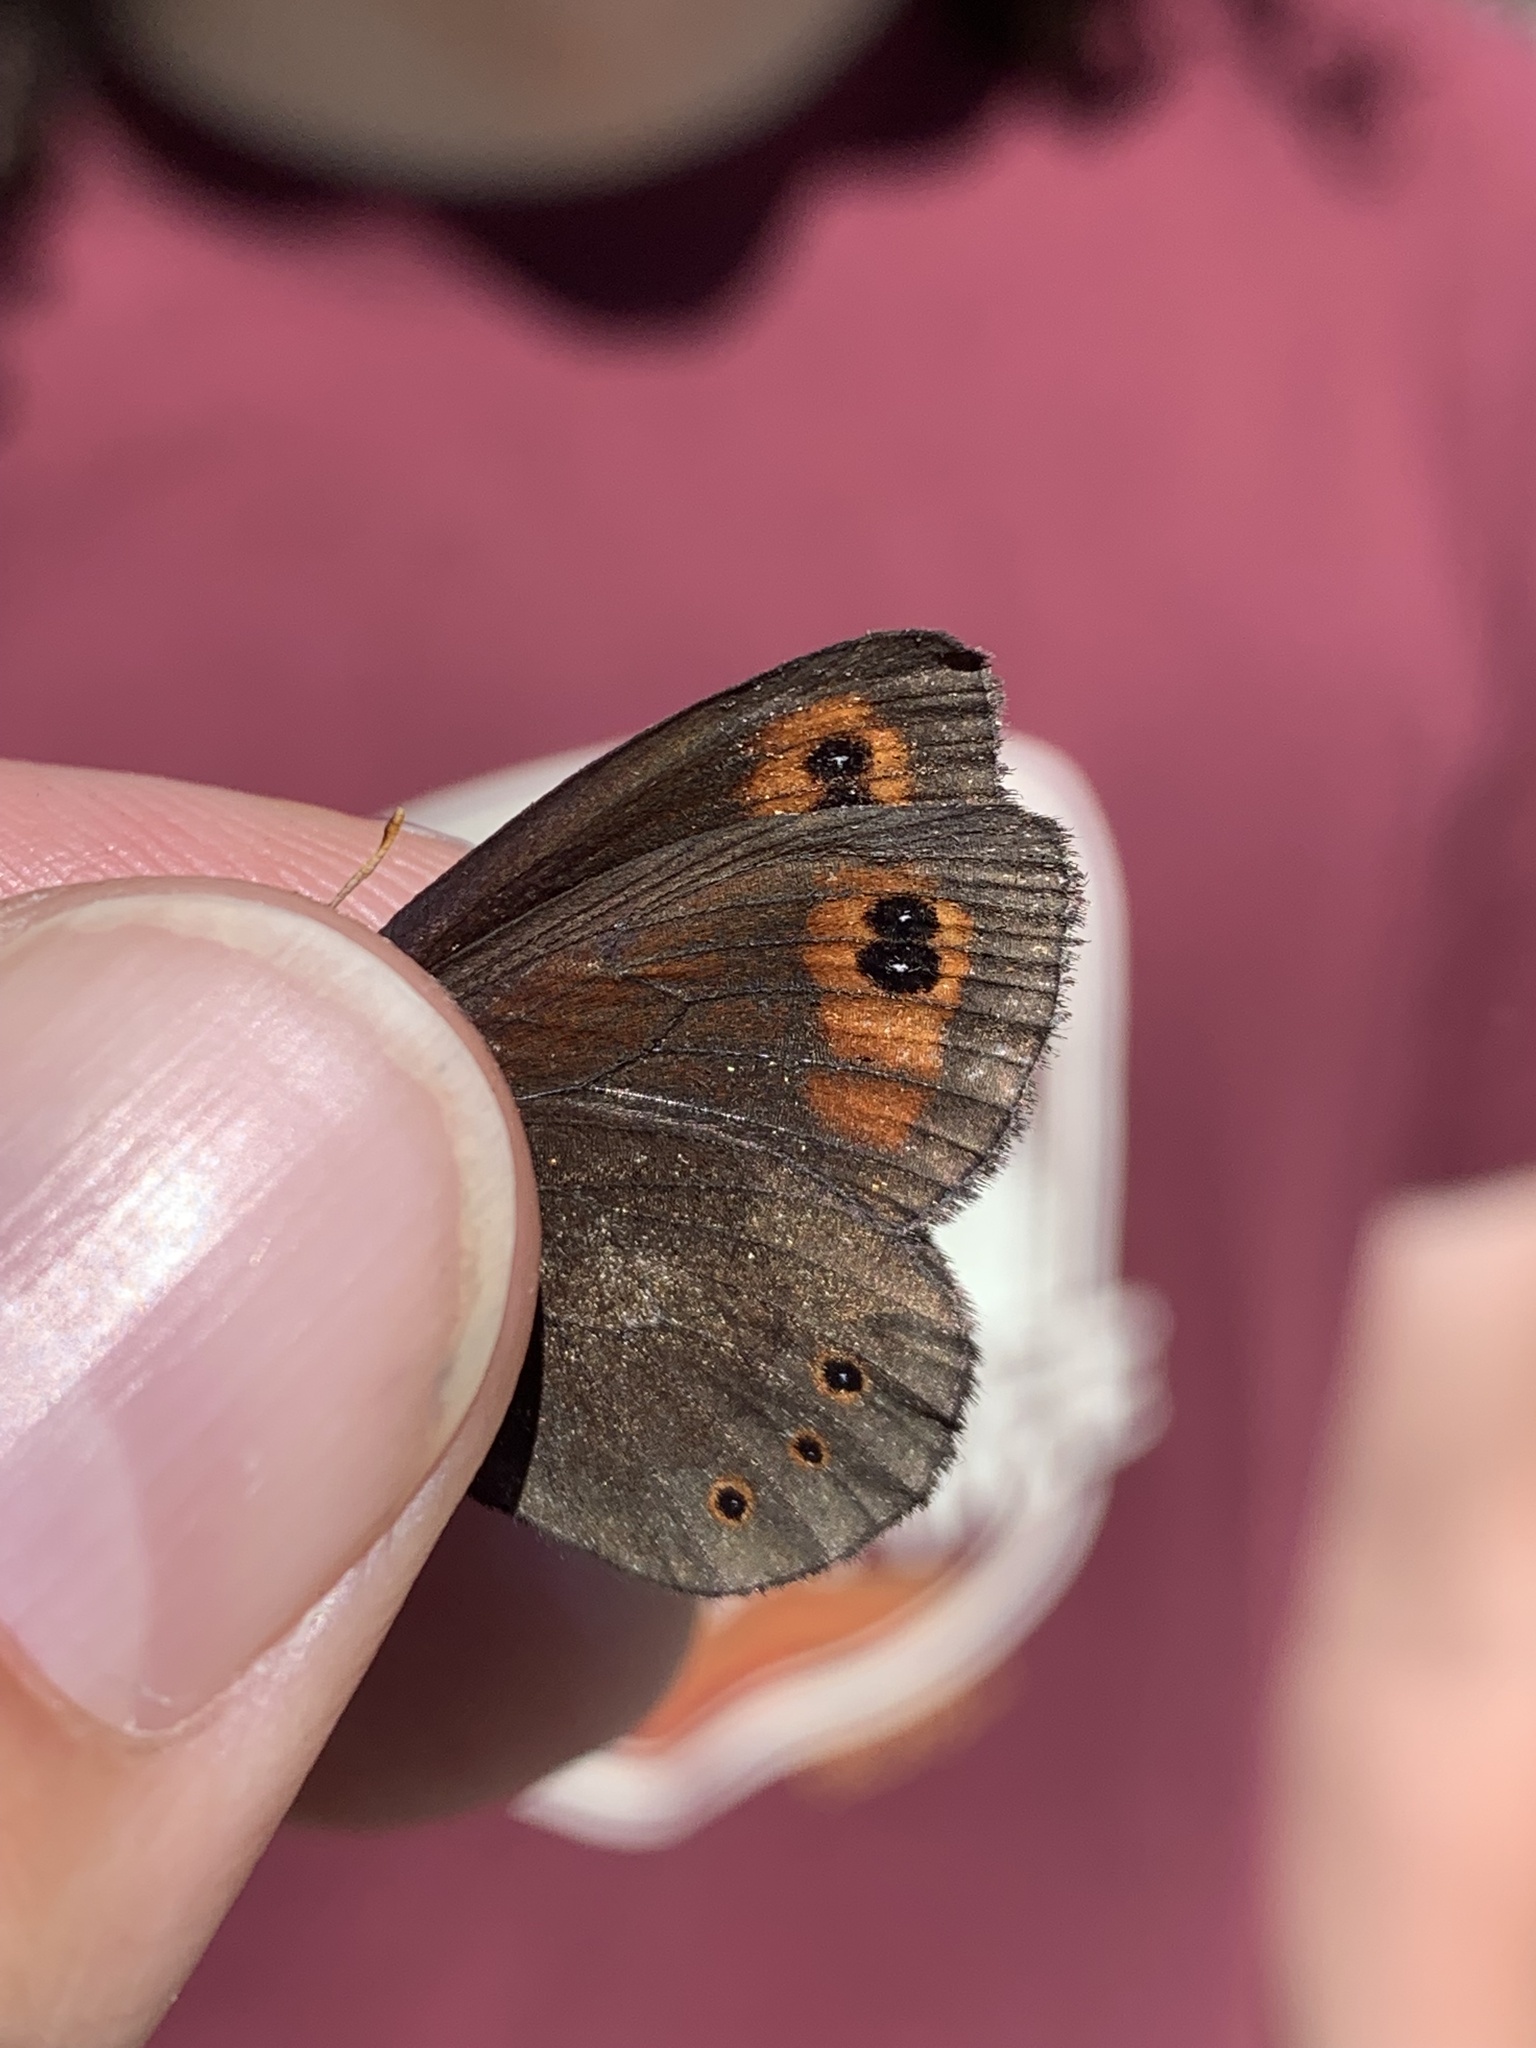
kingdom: Animalia
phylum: Arthropoda
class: Insecta
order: Lepidoptera
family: Nymphalidae
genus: Erebia
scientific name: Erebia epipsodea
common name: Common alpine
